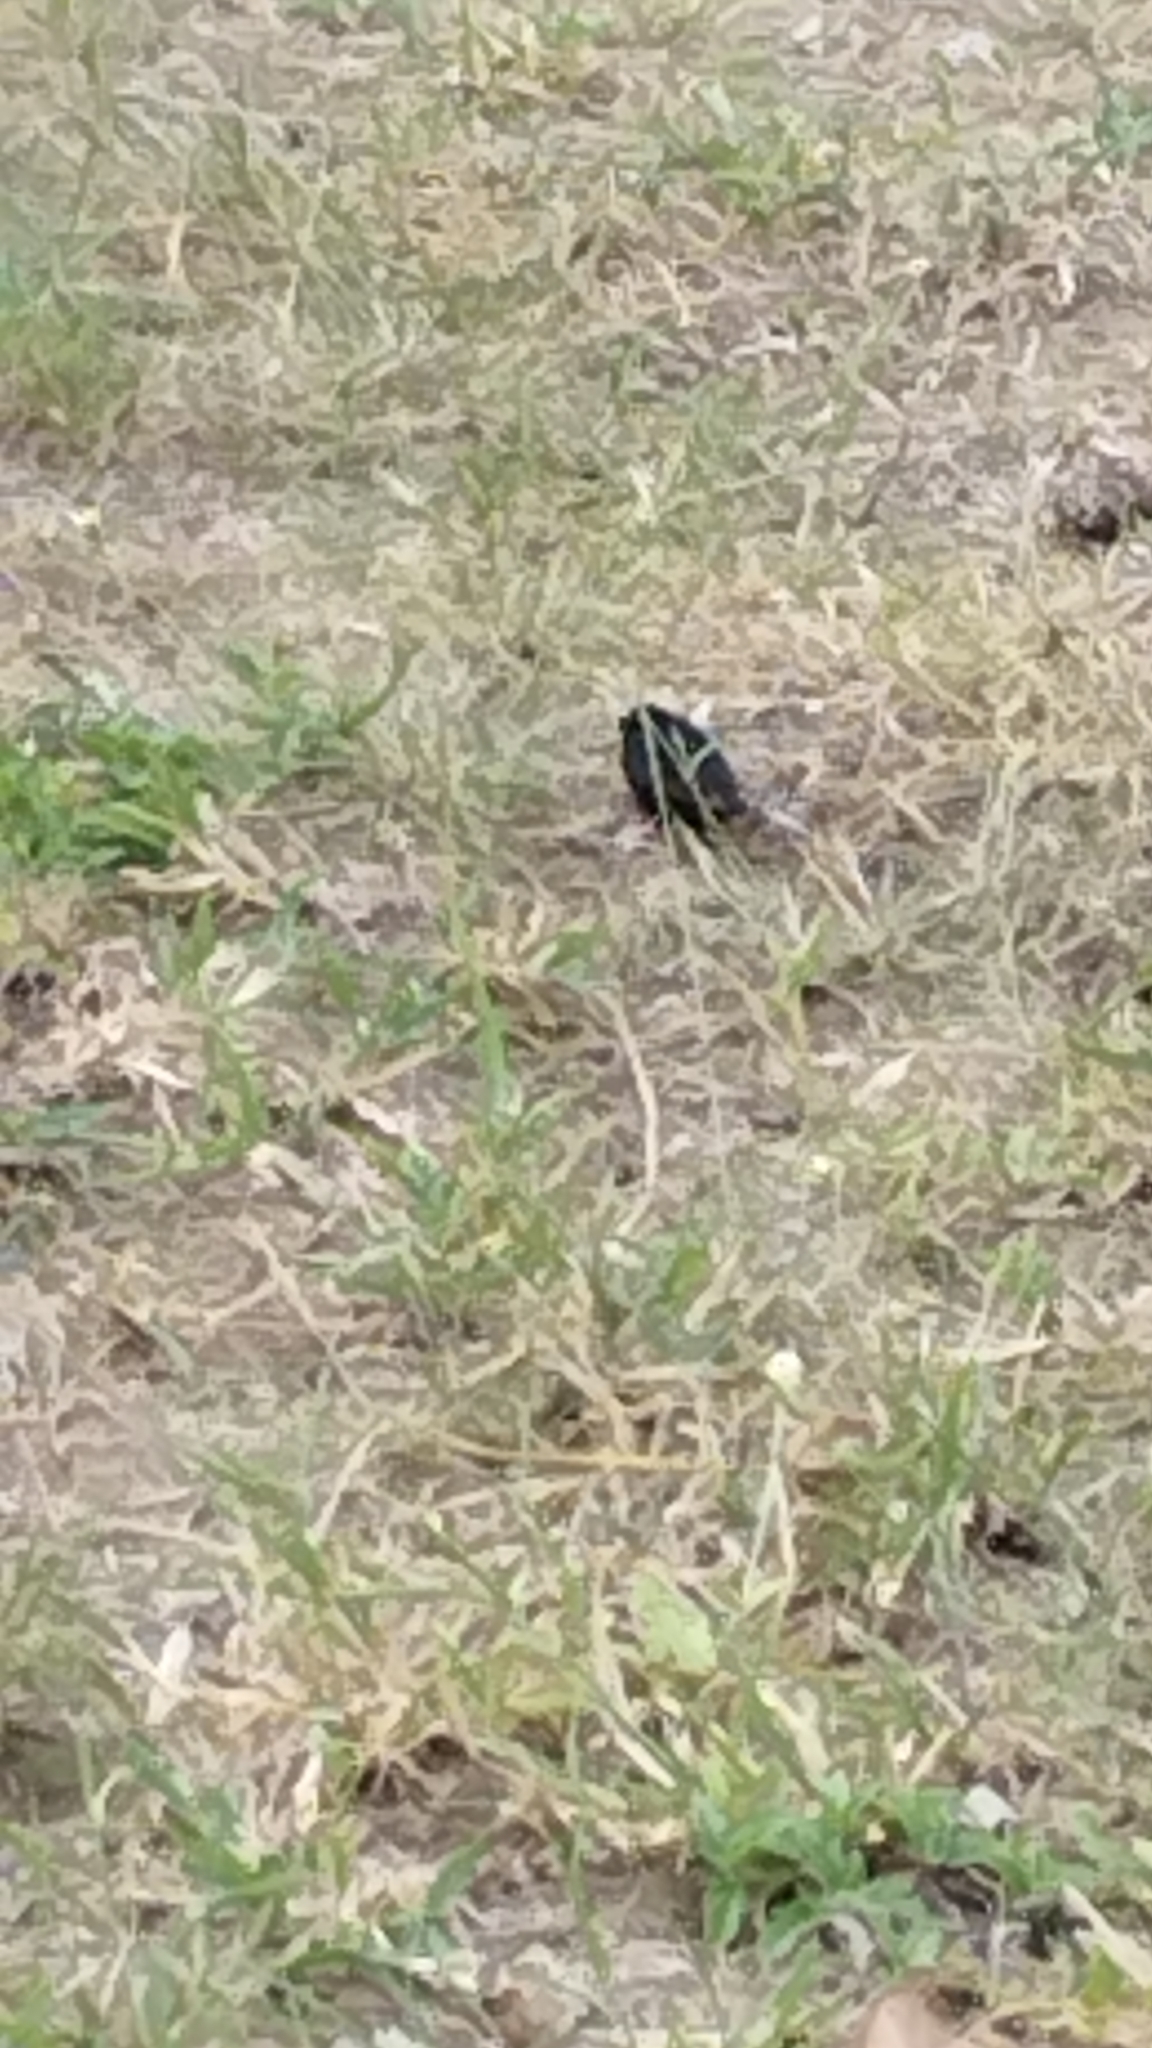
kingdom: Animalia
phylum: Chordata
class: Aves
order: Passeriformes
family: Viduidae
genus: Vidua
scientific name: Vidua chalybeata
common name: Village indigobird
